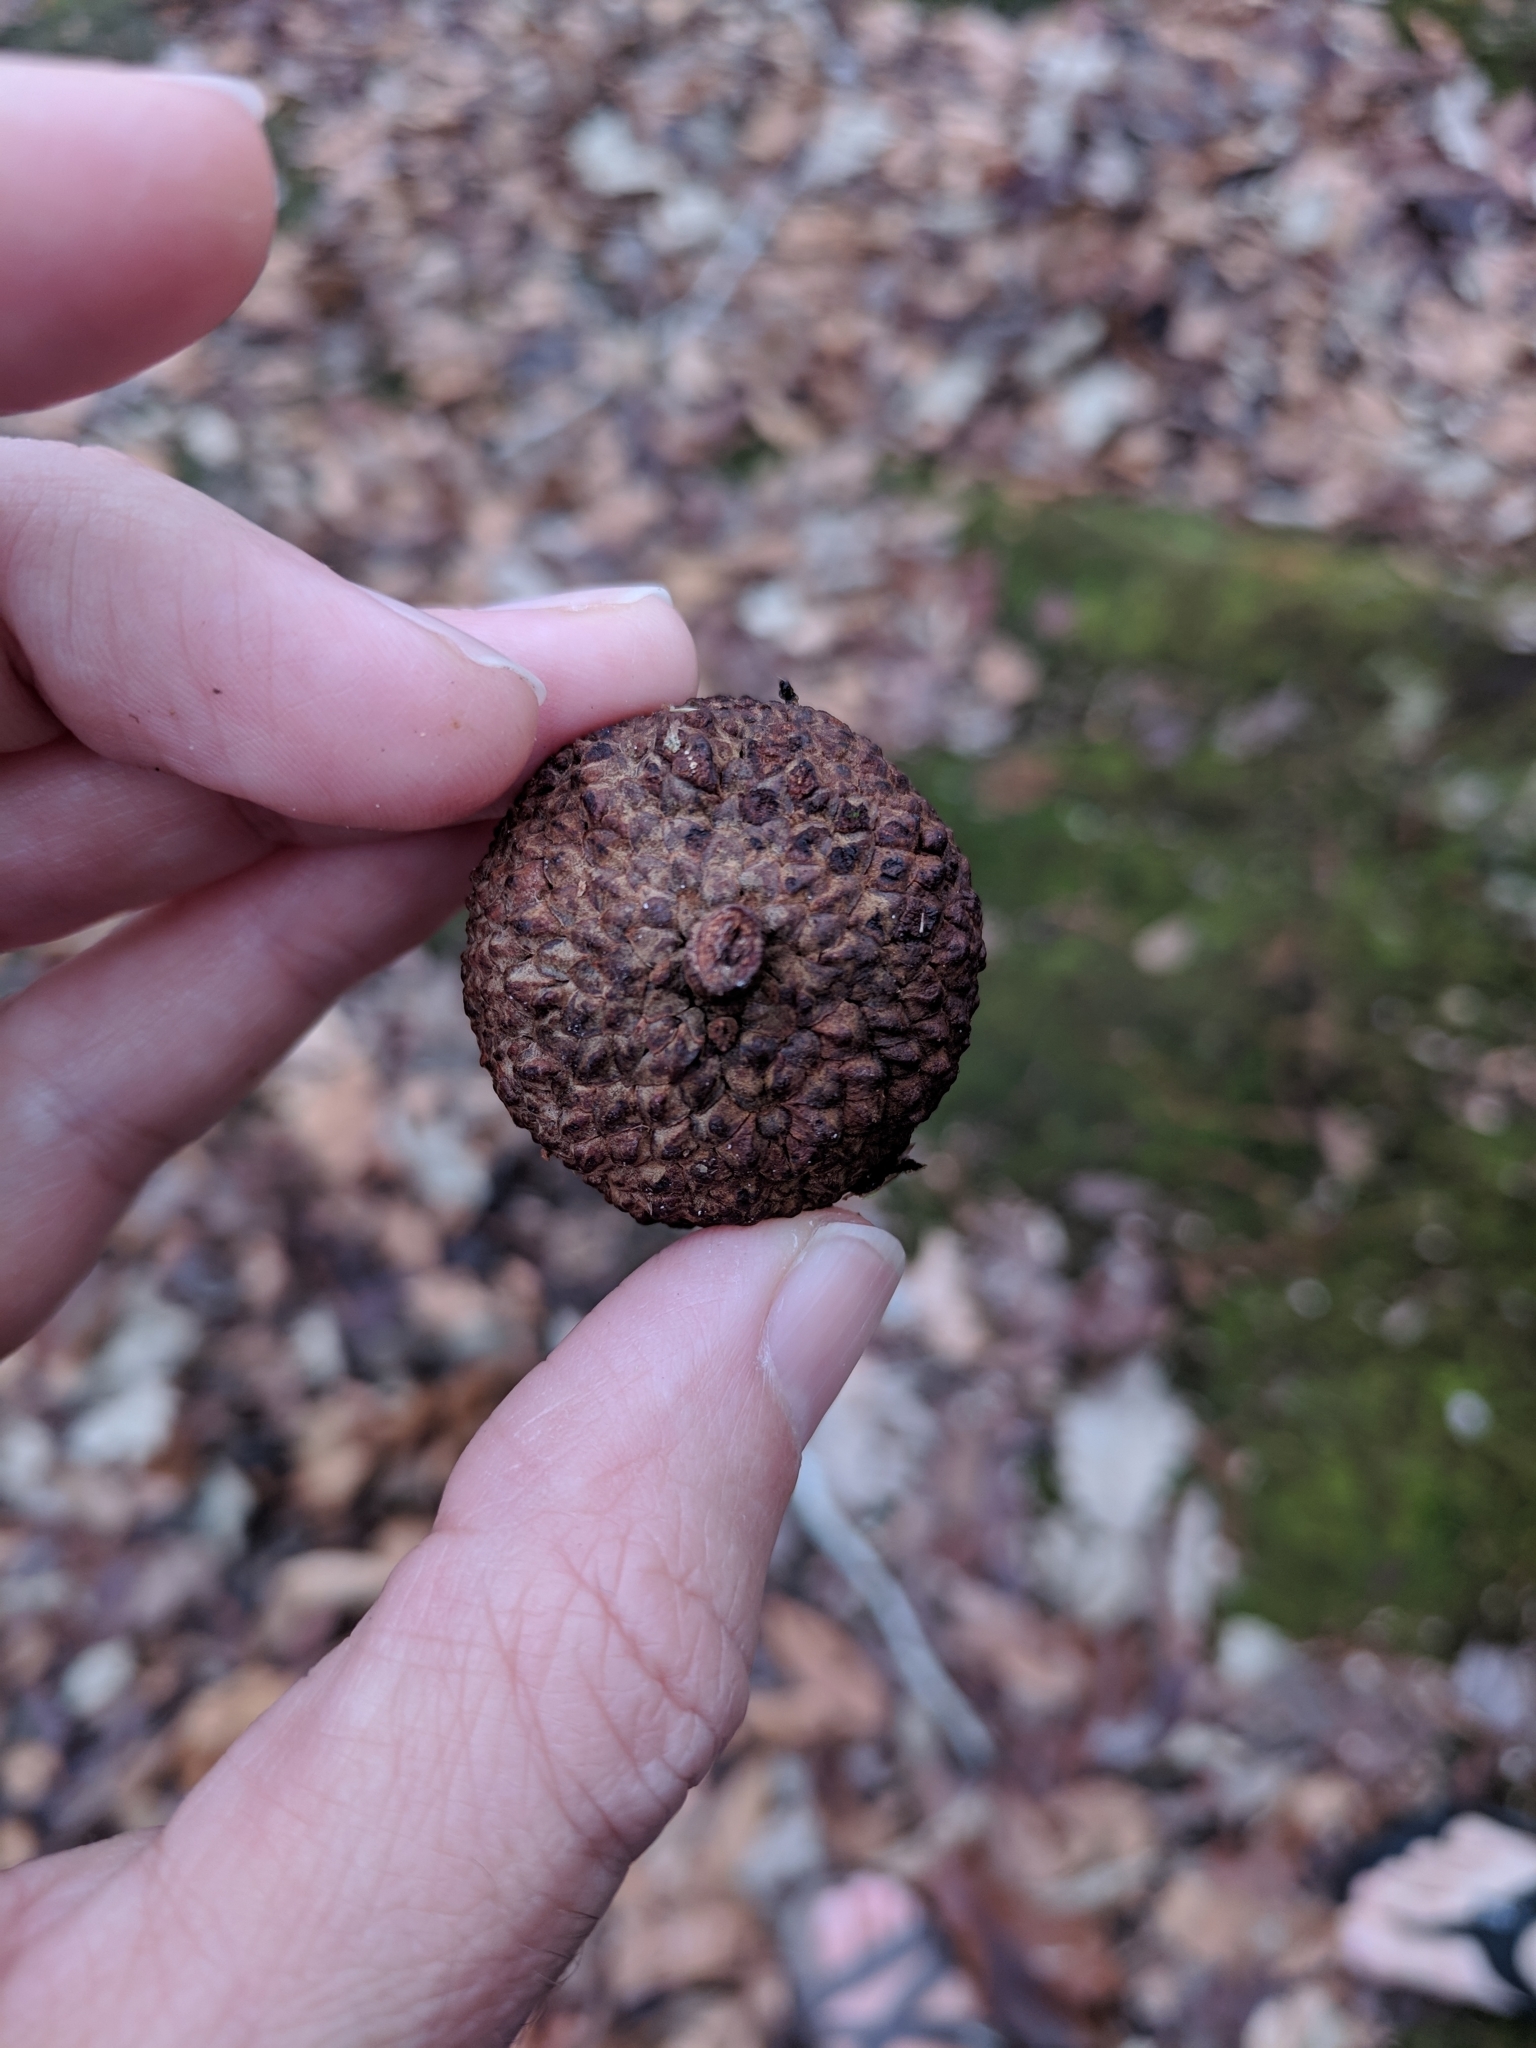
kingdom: Plantae
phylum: Tracheophyta
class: Magnoliopsida
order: Fagales
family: Fagaceae
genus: Quercus
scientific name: Quercus michauxii
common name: Swamp chestnut oak
